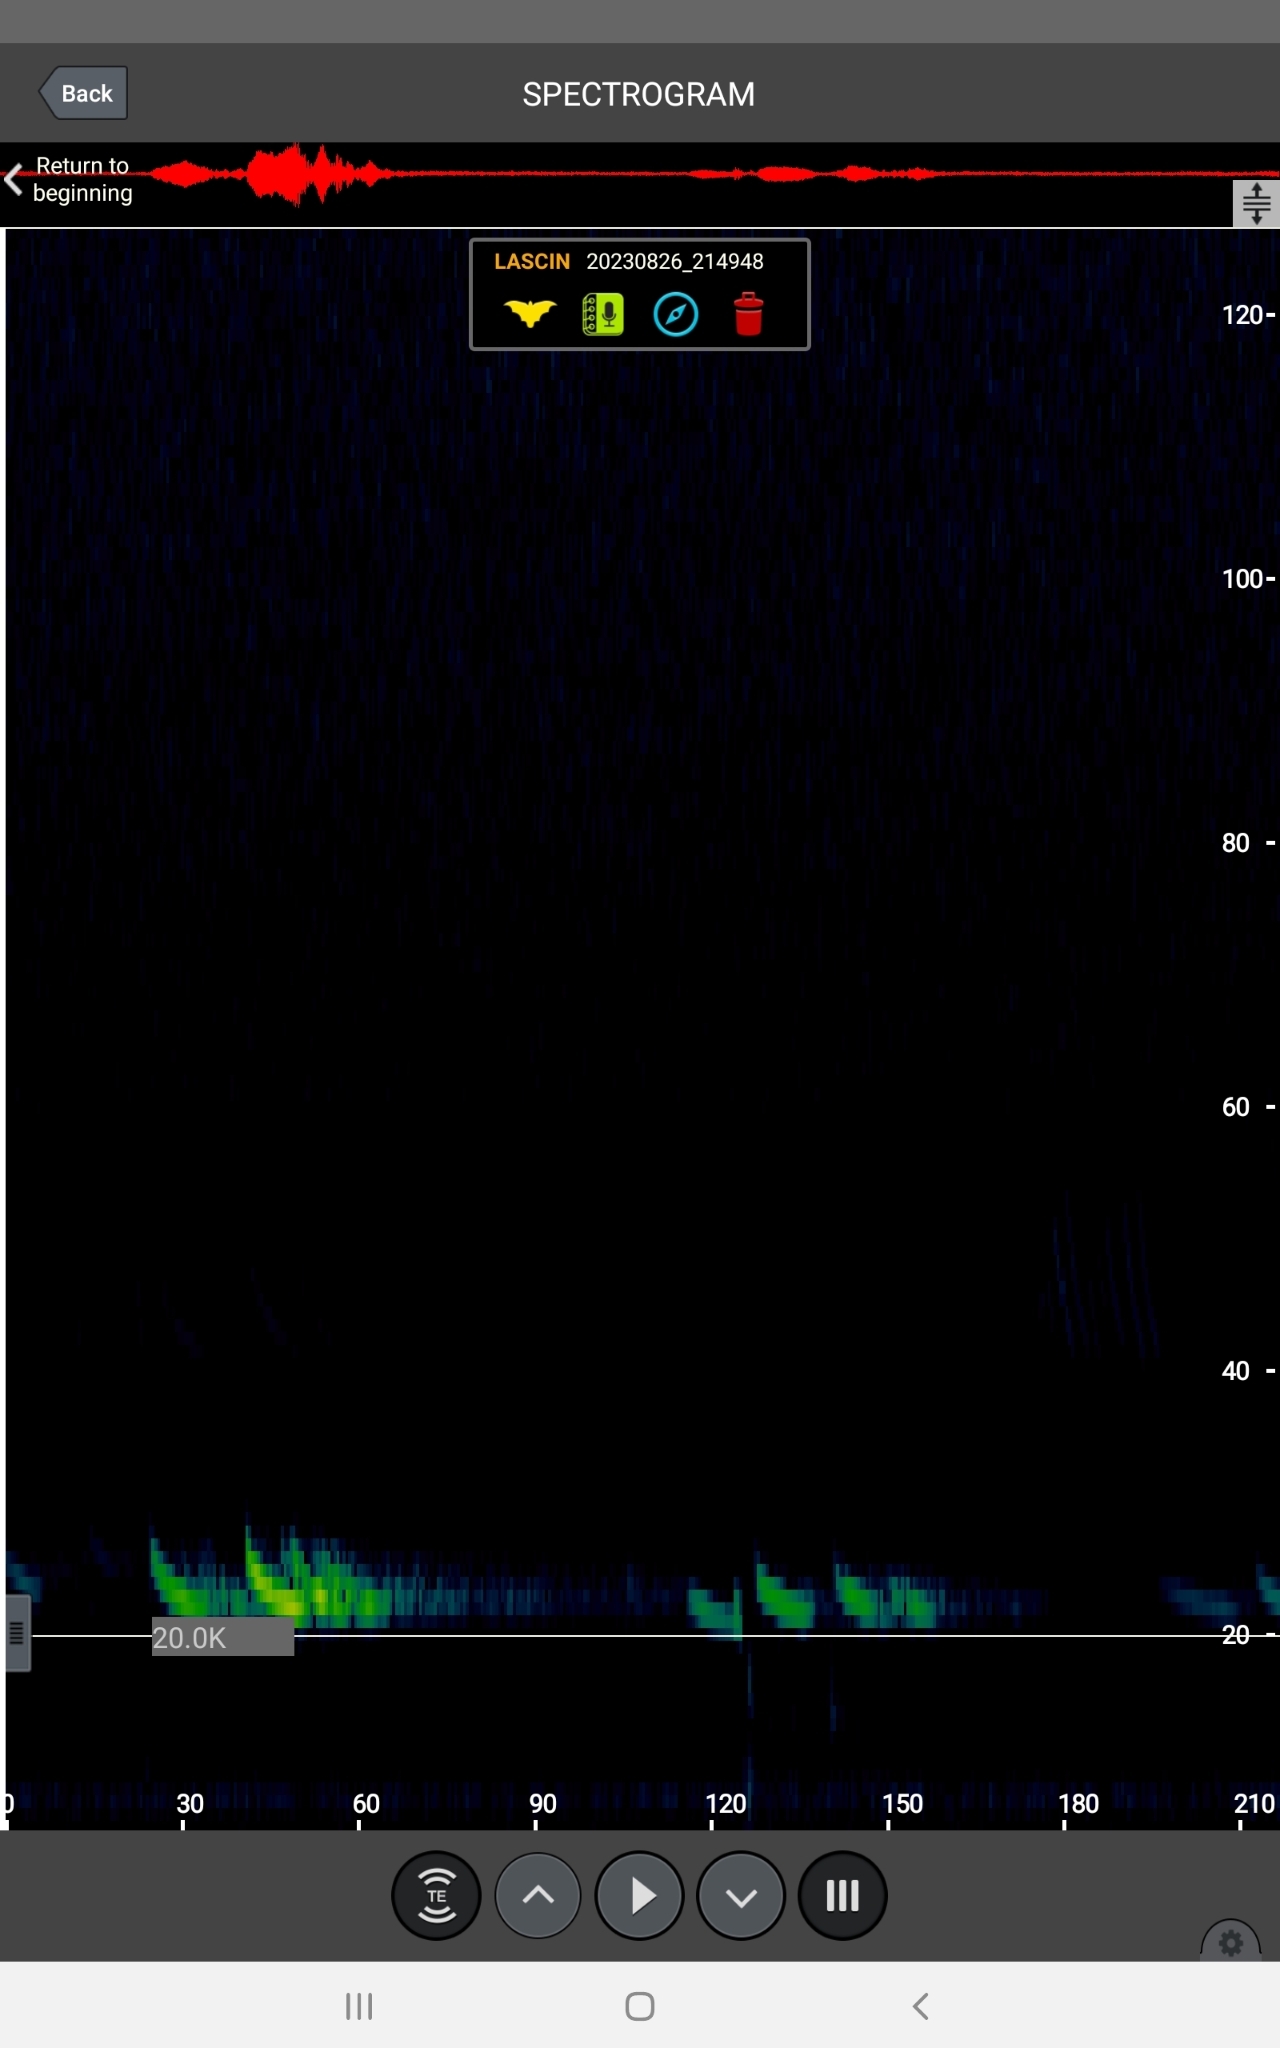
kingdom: Animalia
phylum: Chordata
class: Mammalia
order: Chiroptera
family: Vespertilionidae
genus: Aeorestes
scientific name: Aeorestes cinereus
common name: North american hoary bat
